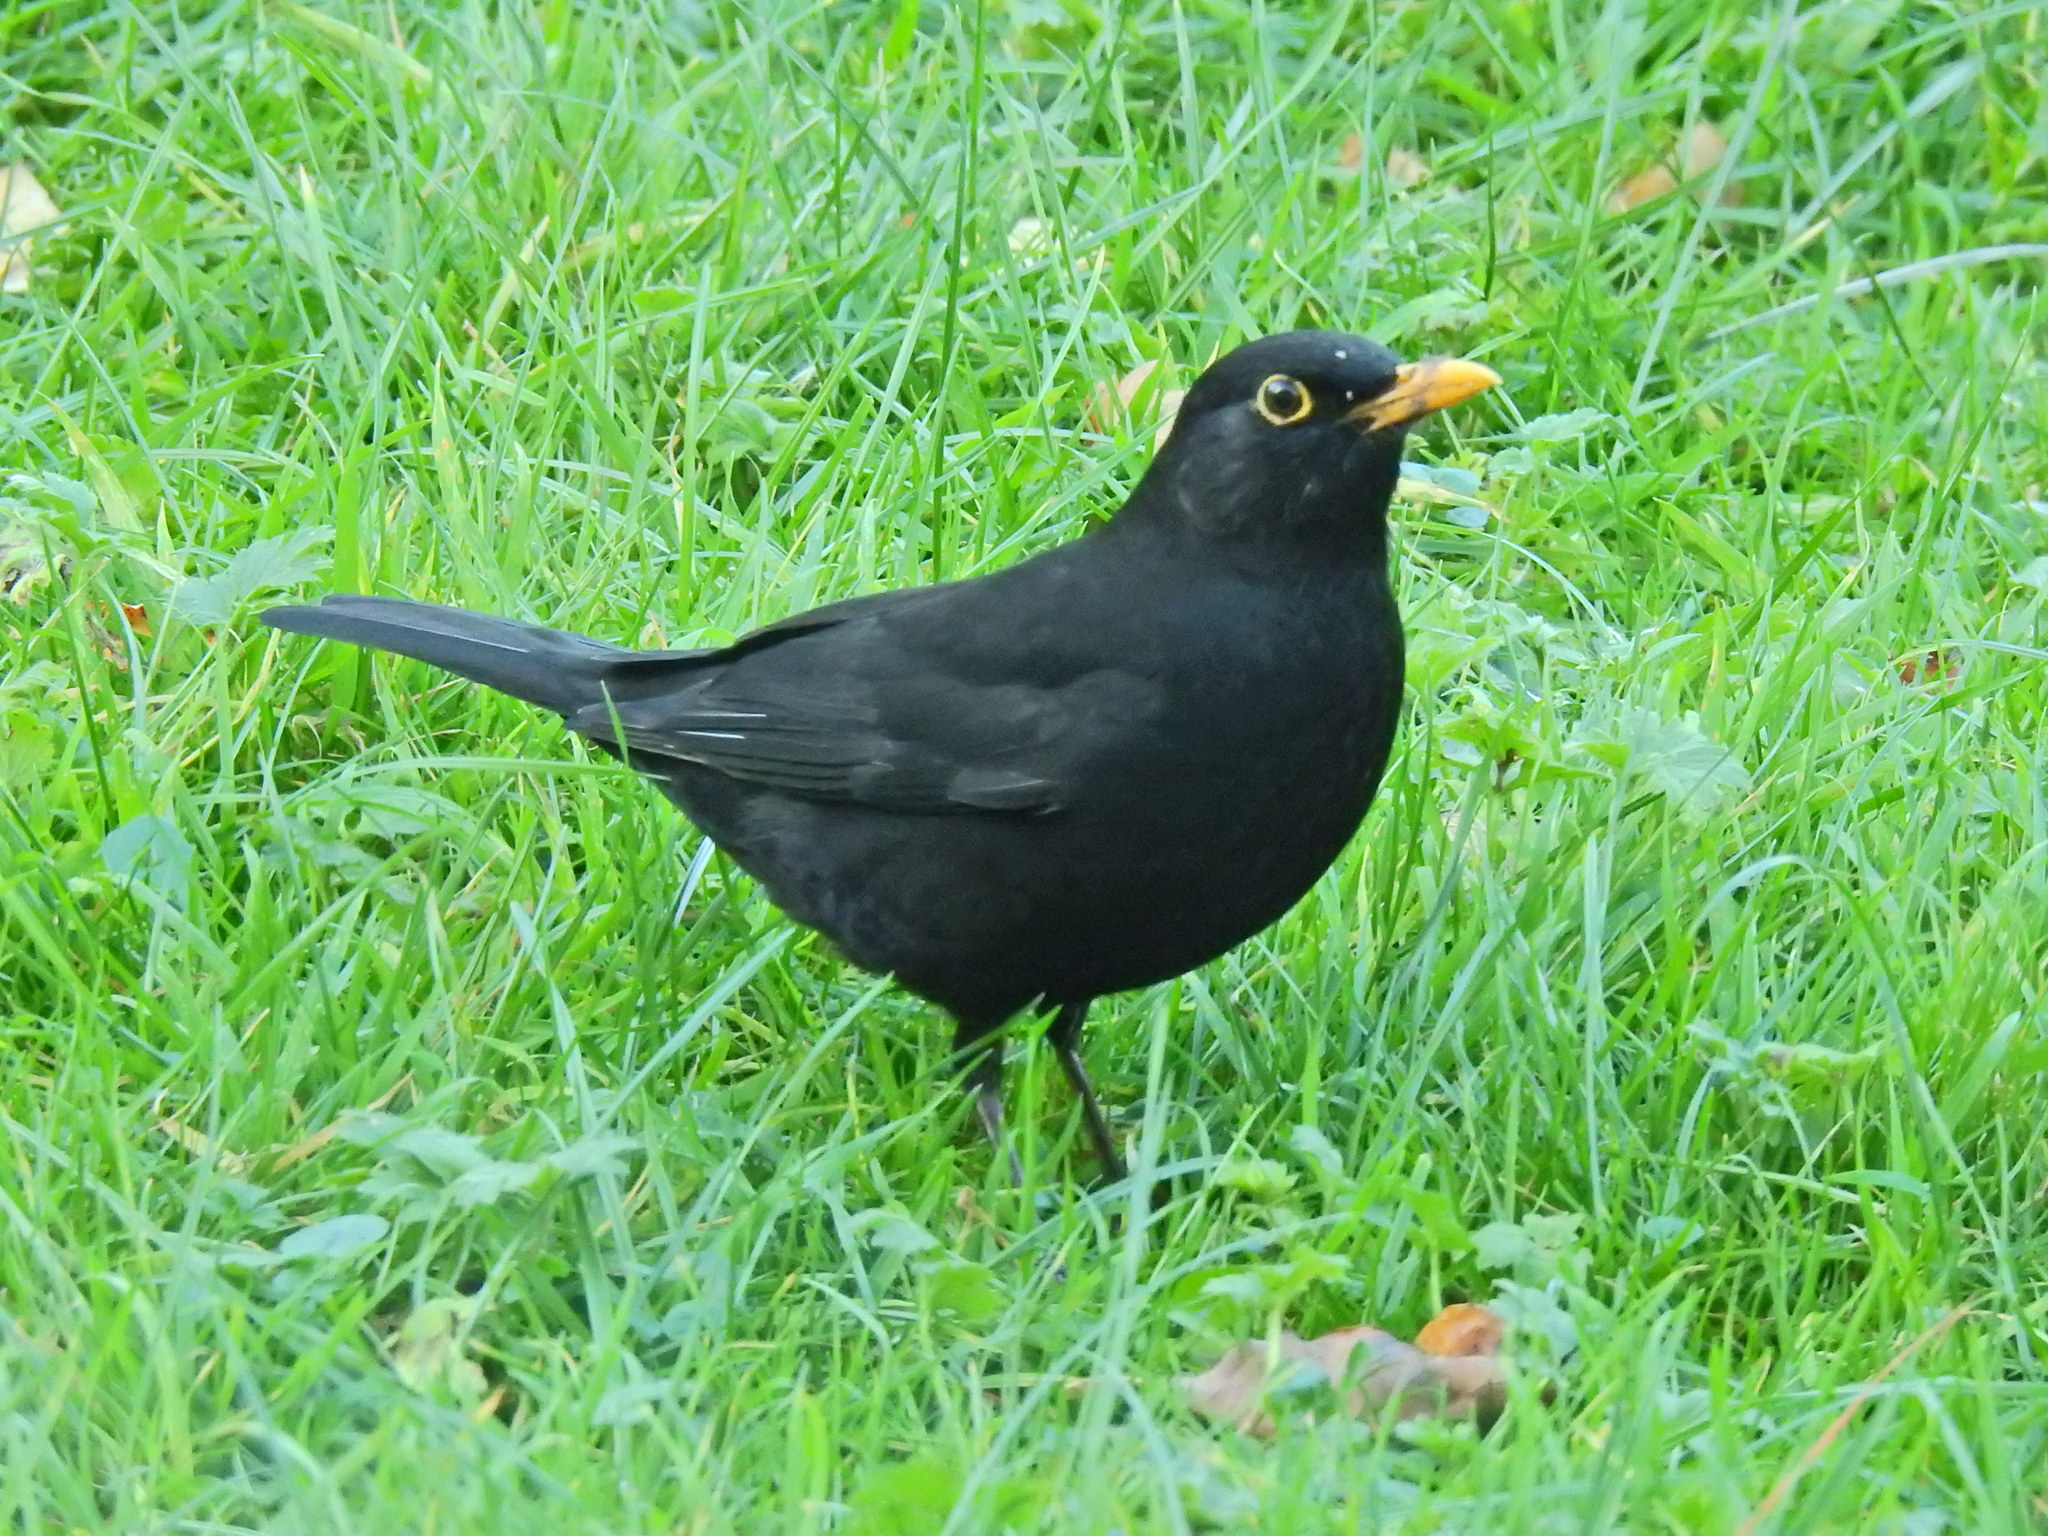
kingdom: Animalia
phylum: Chordata
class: Aves
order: Passeriformes
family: Turdidae
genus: Turdus
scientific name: Turdus merula
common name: Common blackbird
